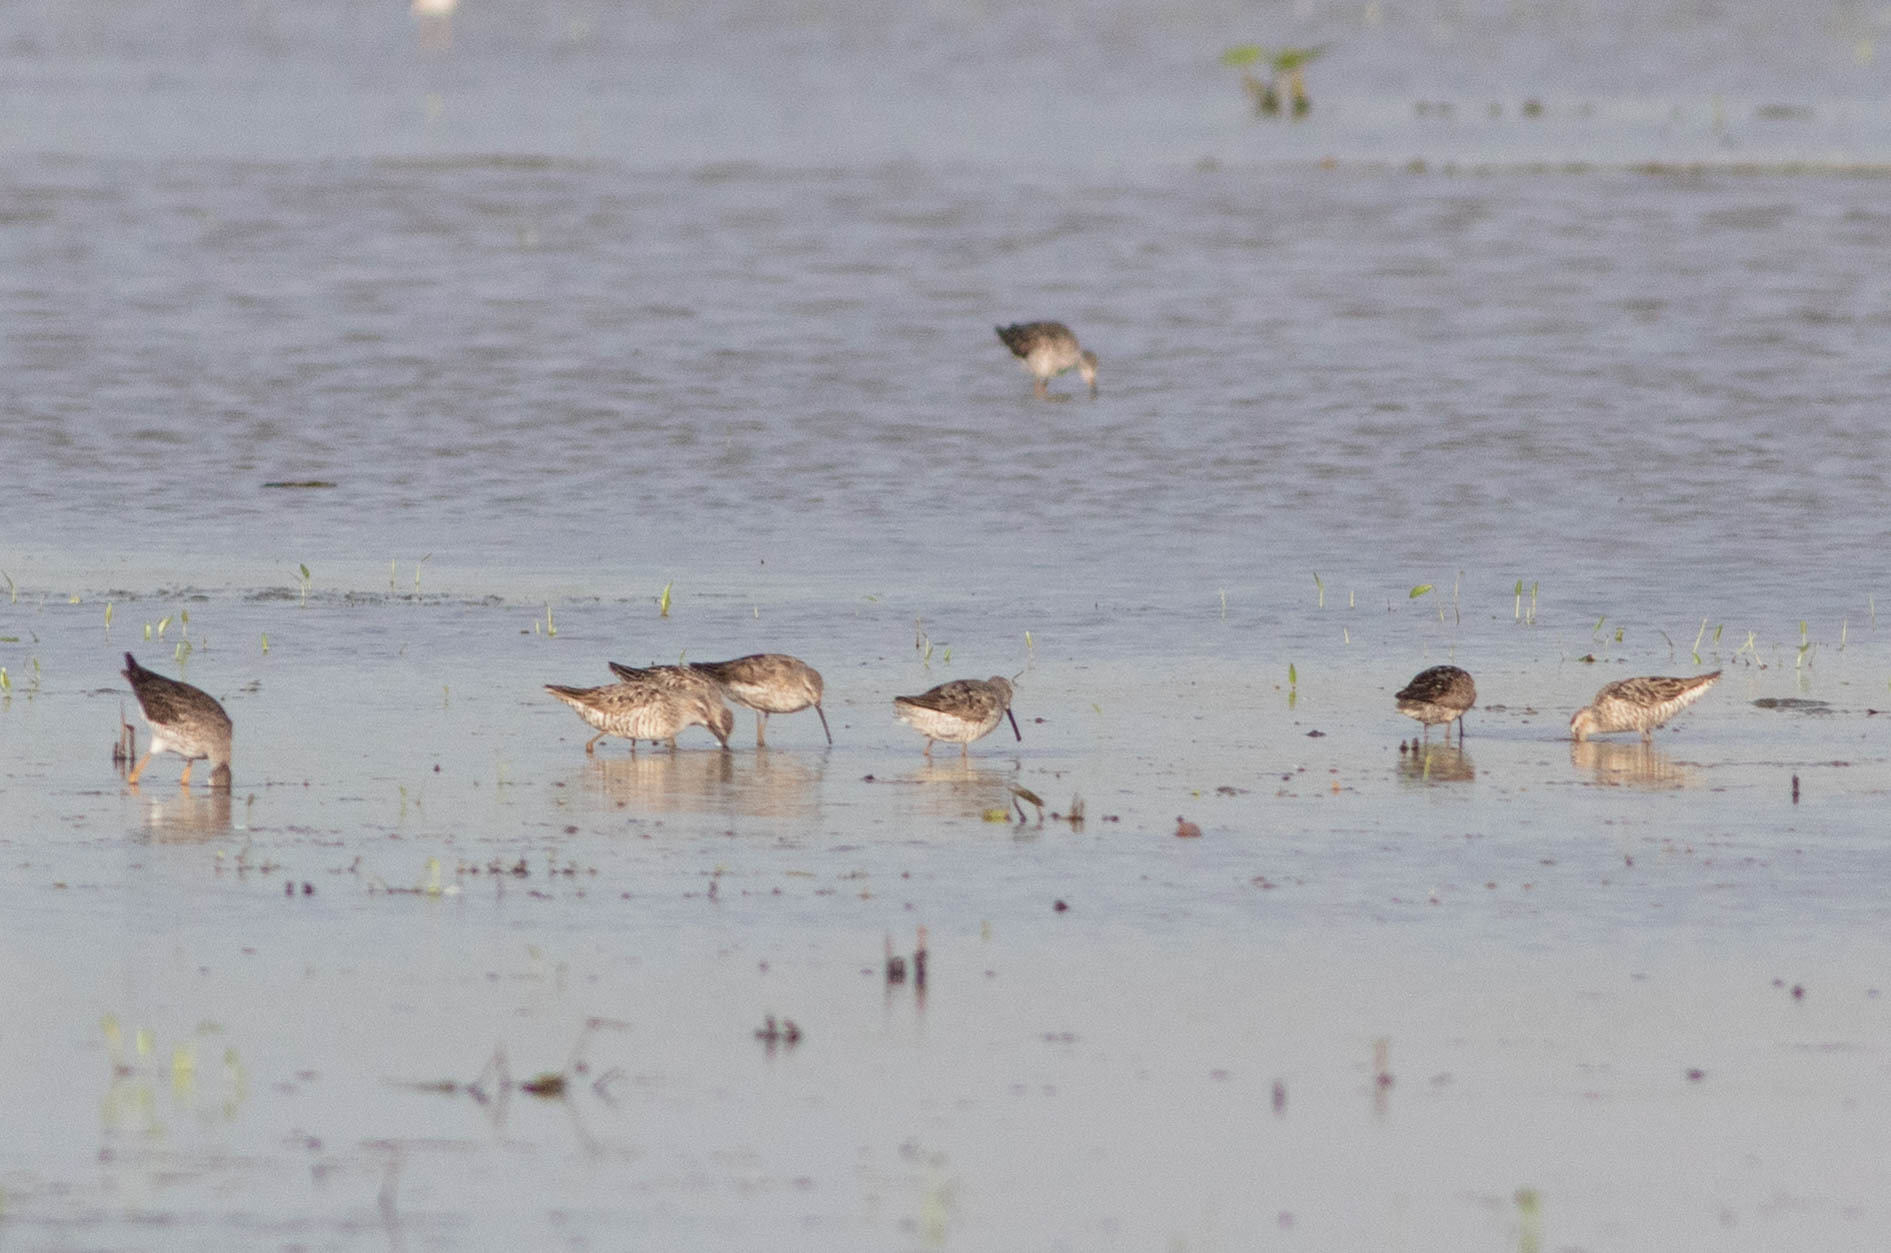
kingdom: Animalia
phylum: Chordata
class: Aves
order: Charadriiformes
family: Scolopacidae
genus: Calidris
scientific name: Calidris himantopus
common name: Stilt sandpiper
